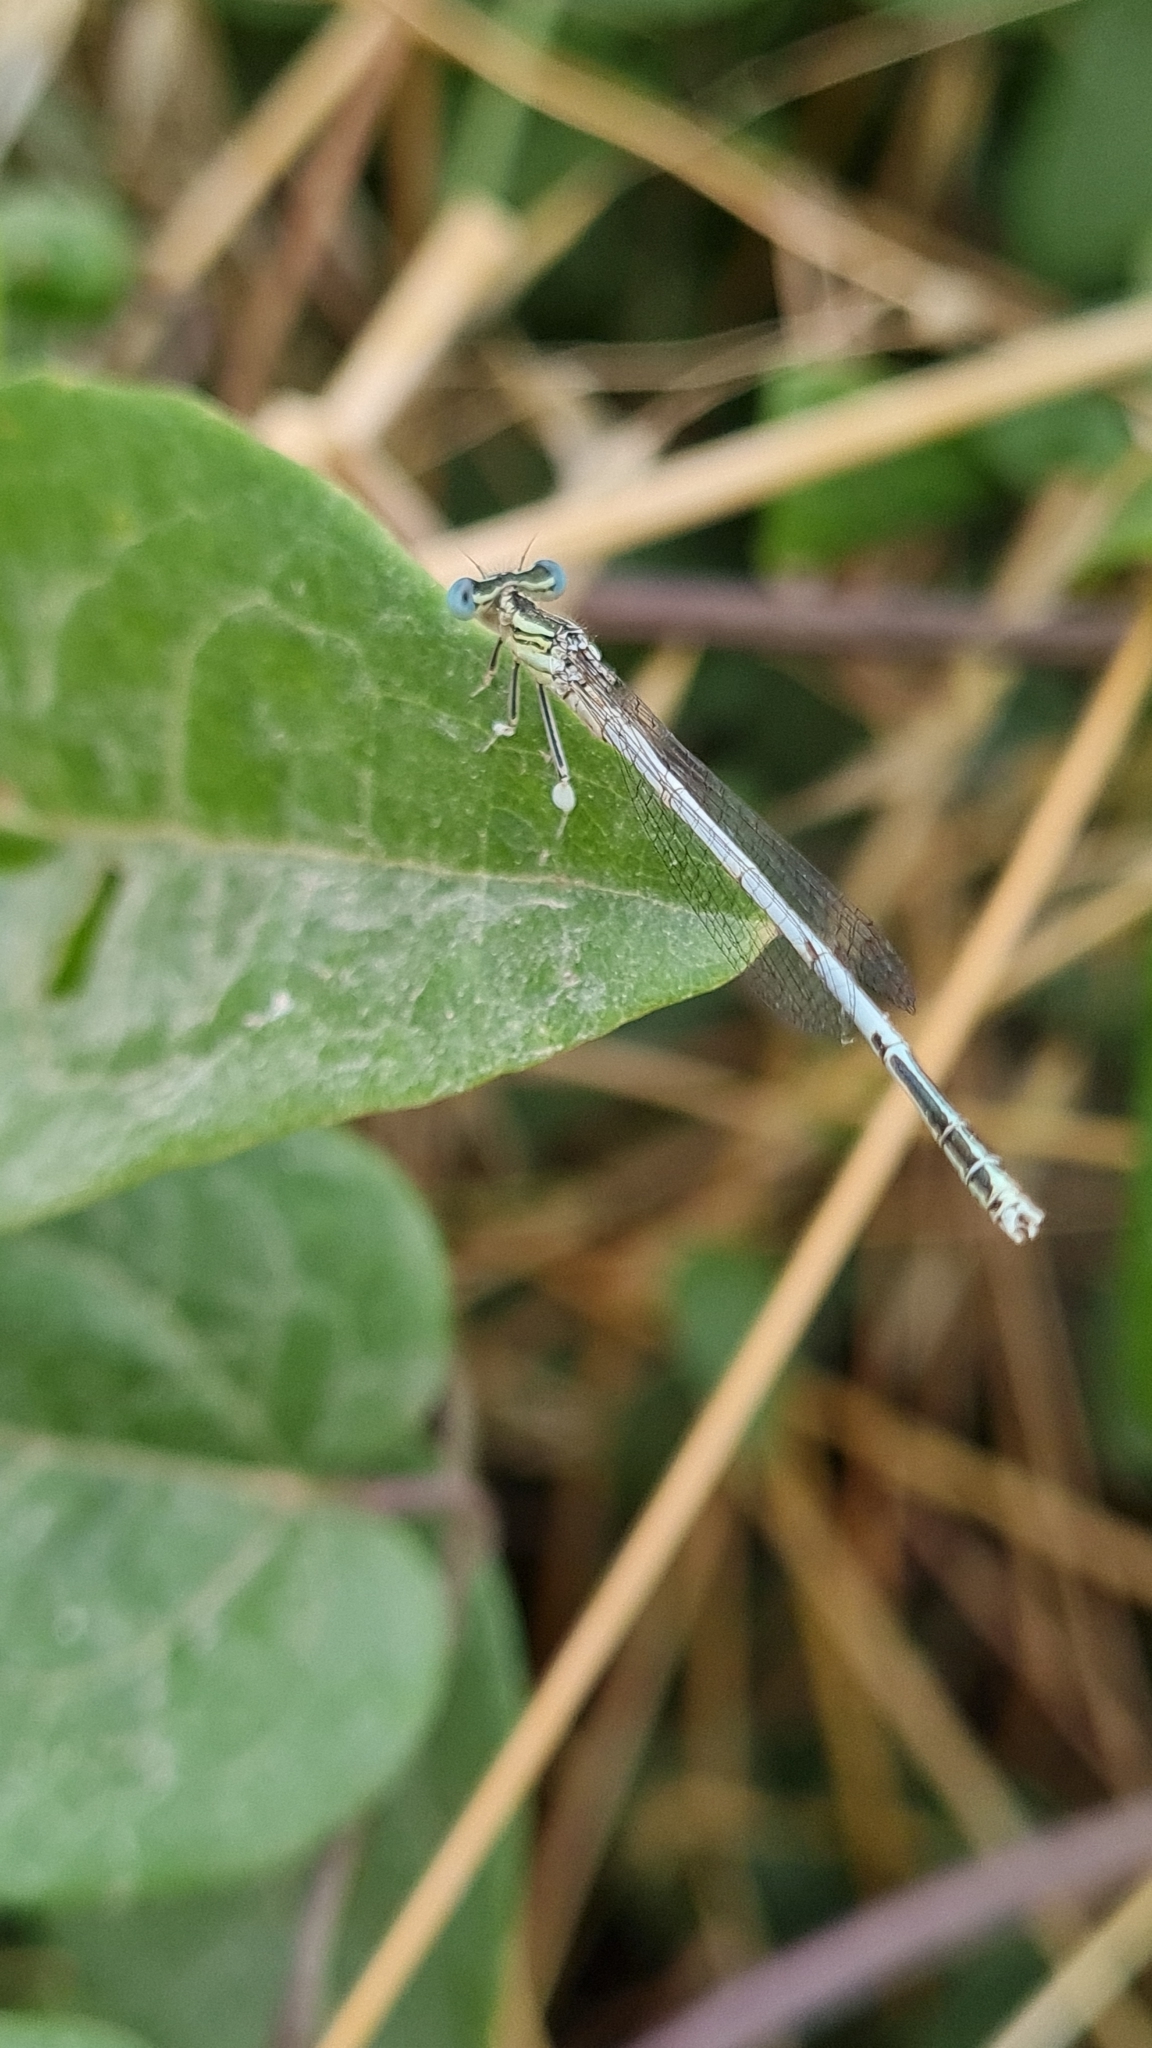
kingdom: Animalia
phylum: Arthropoda
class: Insecta
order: Odonata
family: Platycnemididae
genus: Platycnemis
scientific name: Platycnemis latipes
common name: White featherleg
